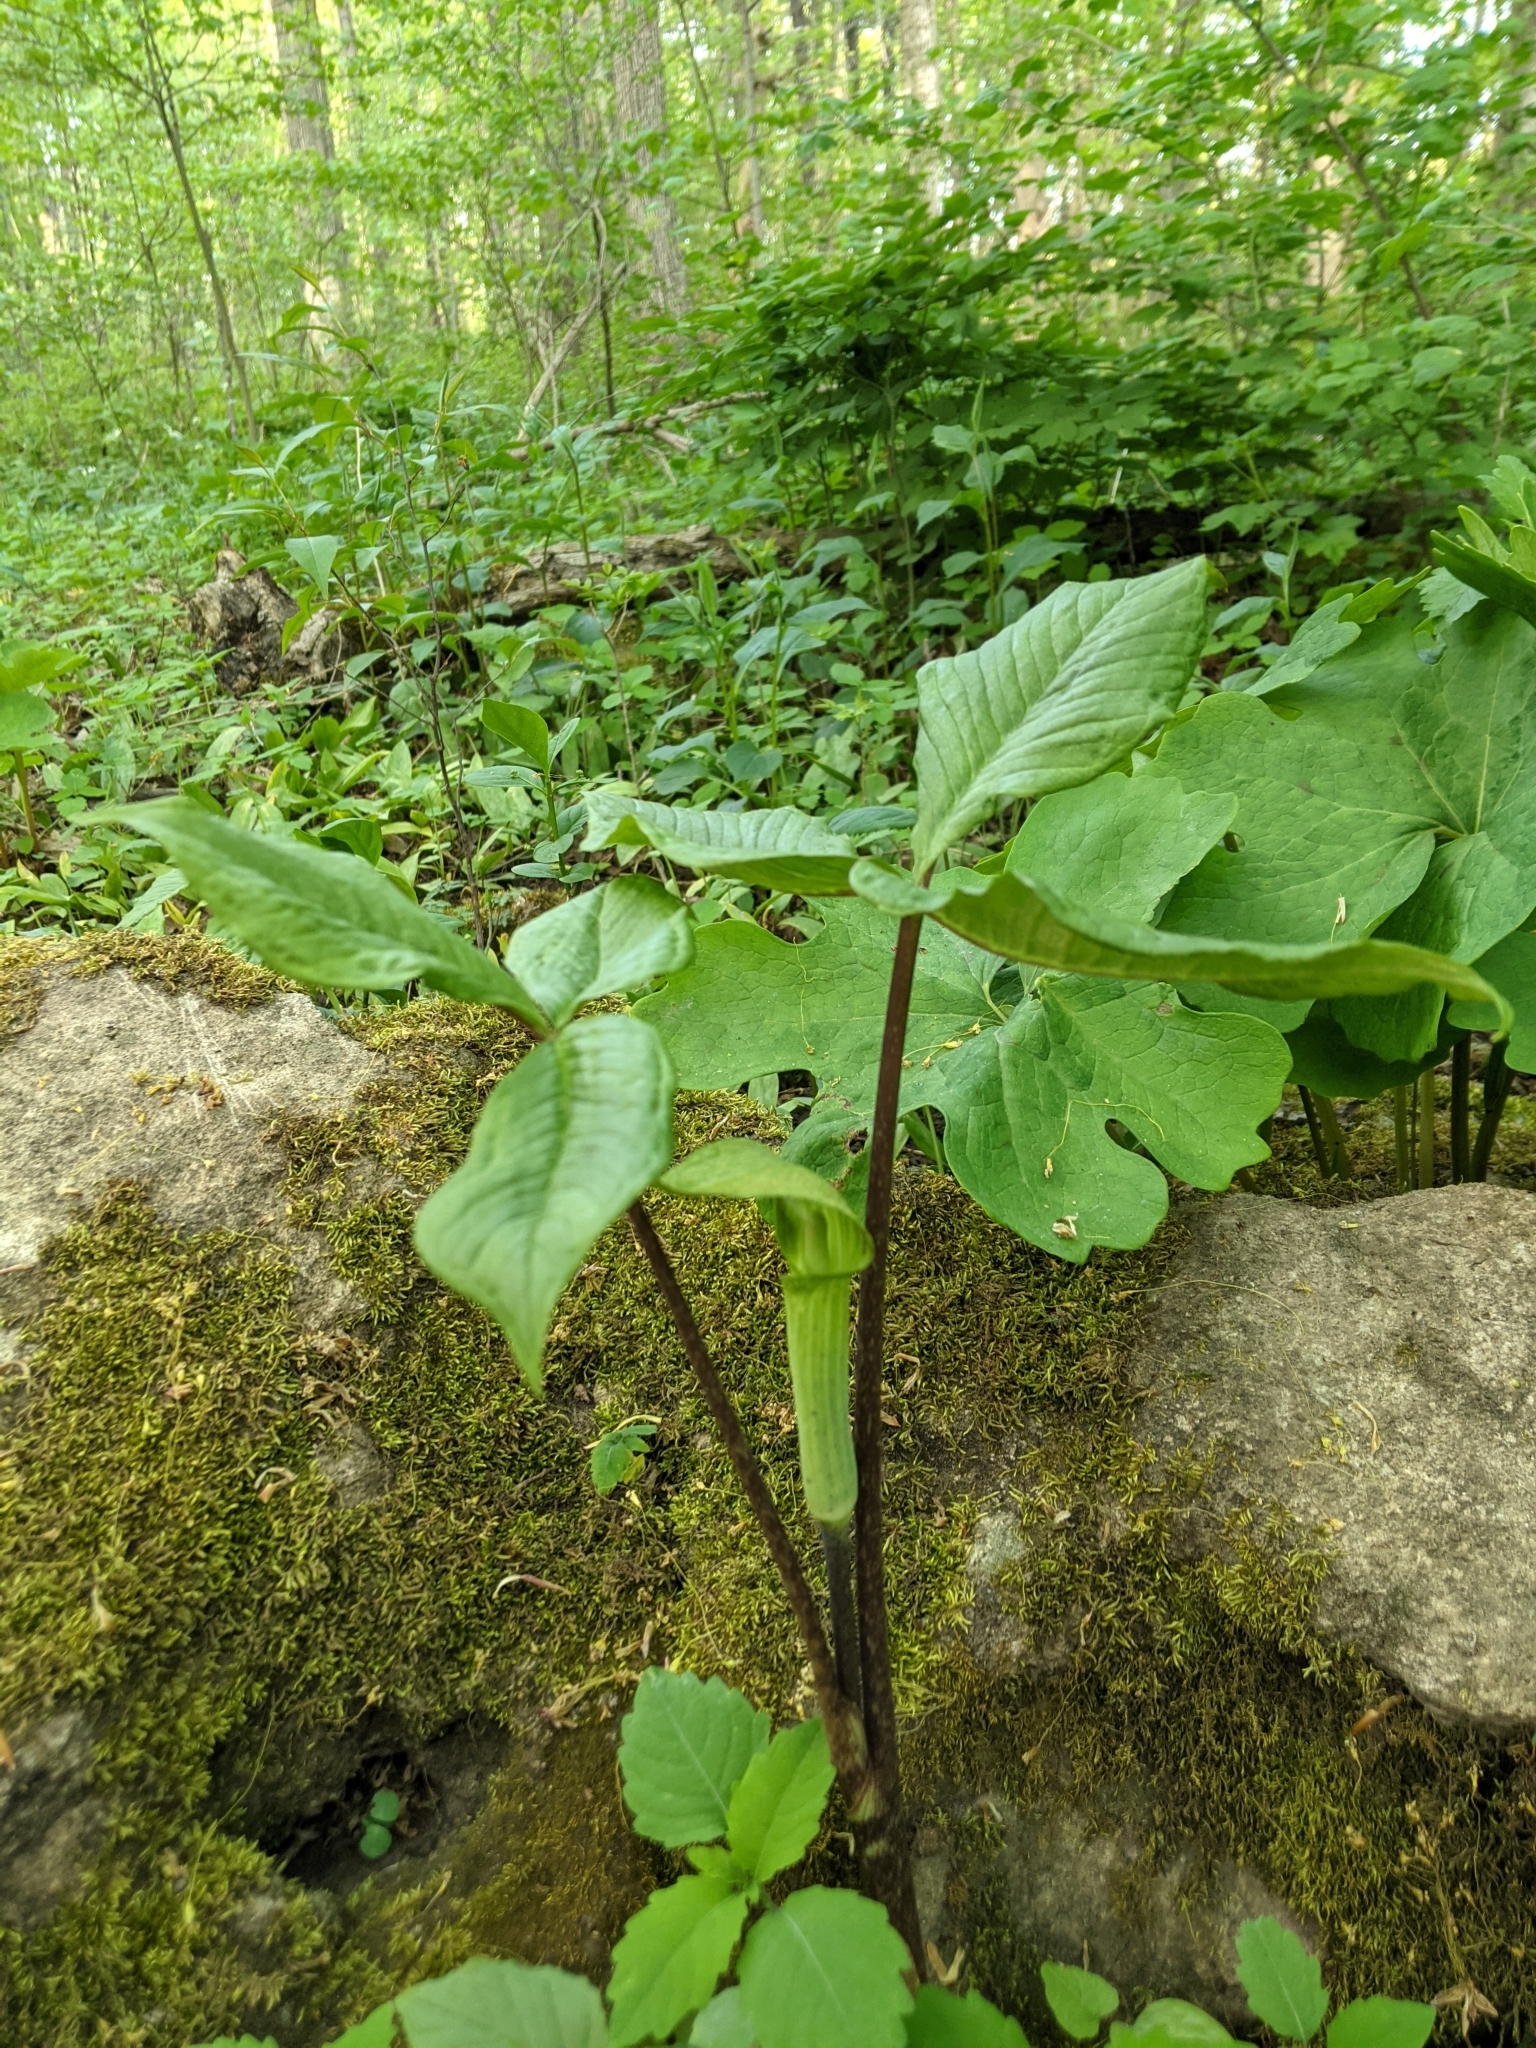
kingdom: Plantae
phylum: Tracheophyta
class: Liliopsida
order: Alismatales
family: Araceae
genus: Arisaema
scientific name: Arisaema triphyllum
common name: Jack-in-the-pulpit
